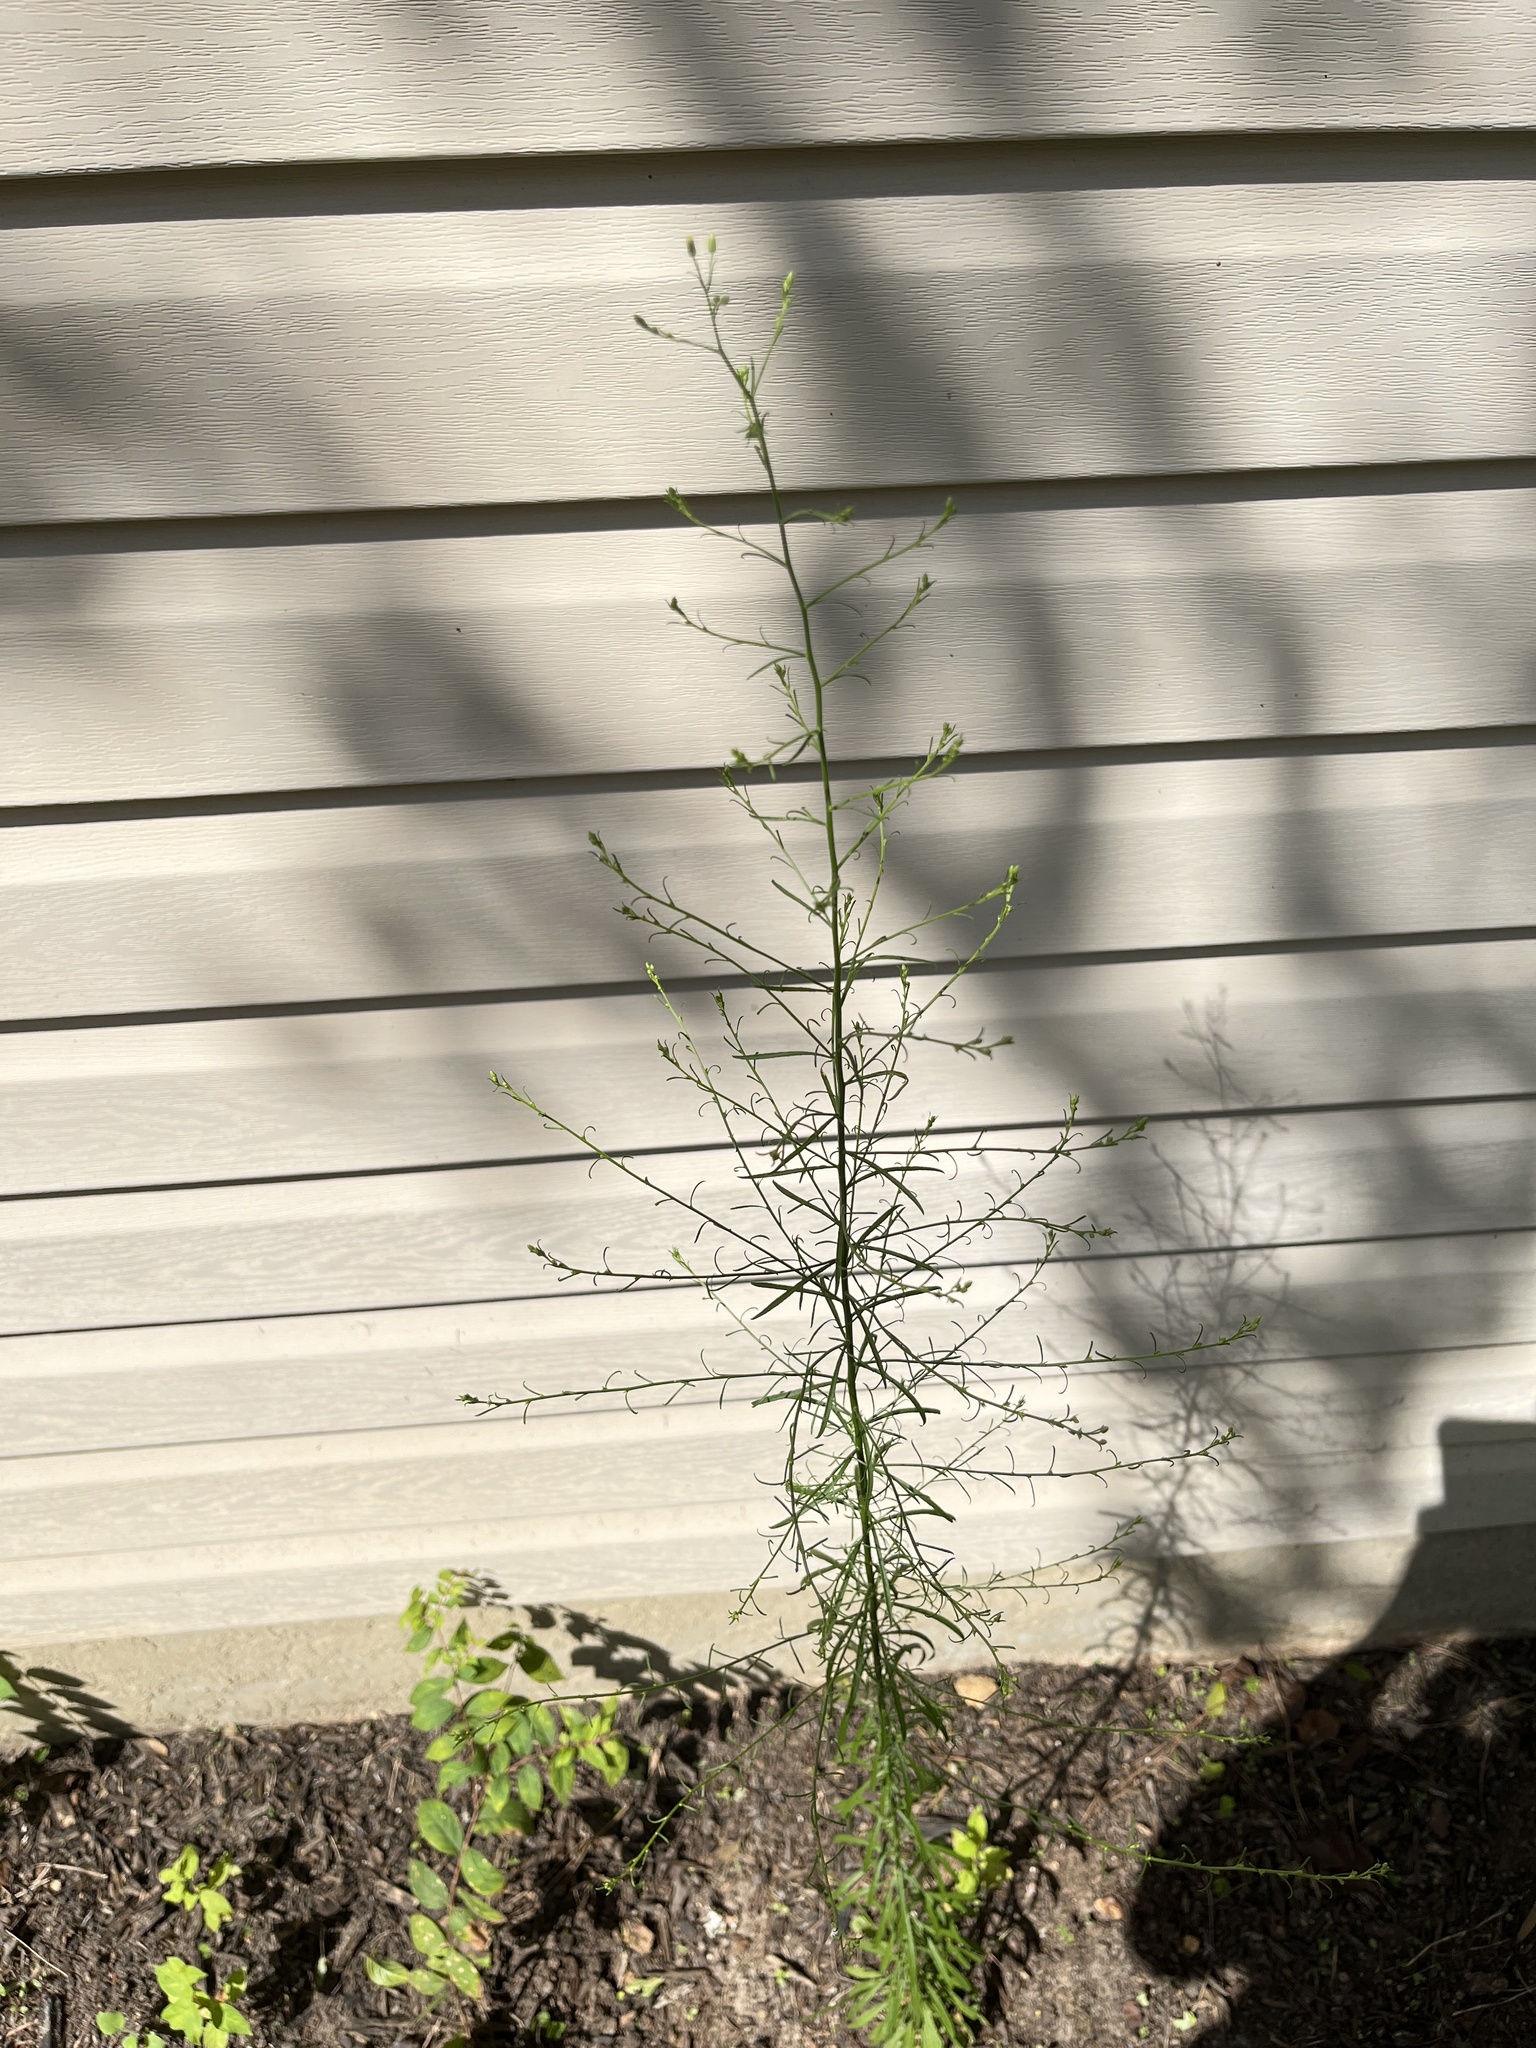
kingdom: Plantae
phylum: Tracheophyta
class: Magnoliopsida
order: Asterales
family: Asteraceae
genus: Croptilon
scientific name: Croptilon divaricatum
